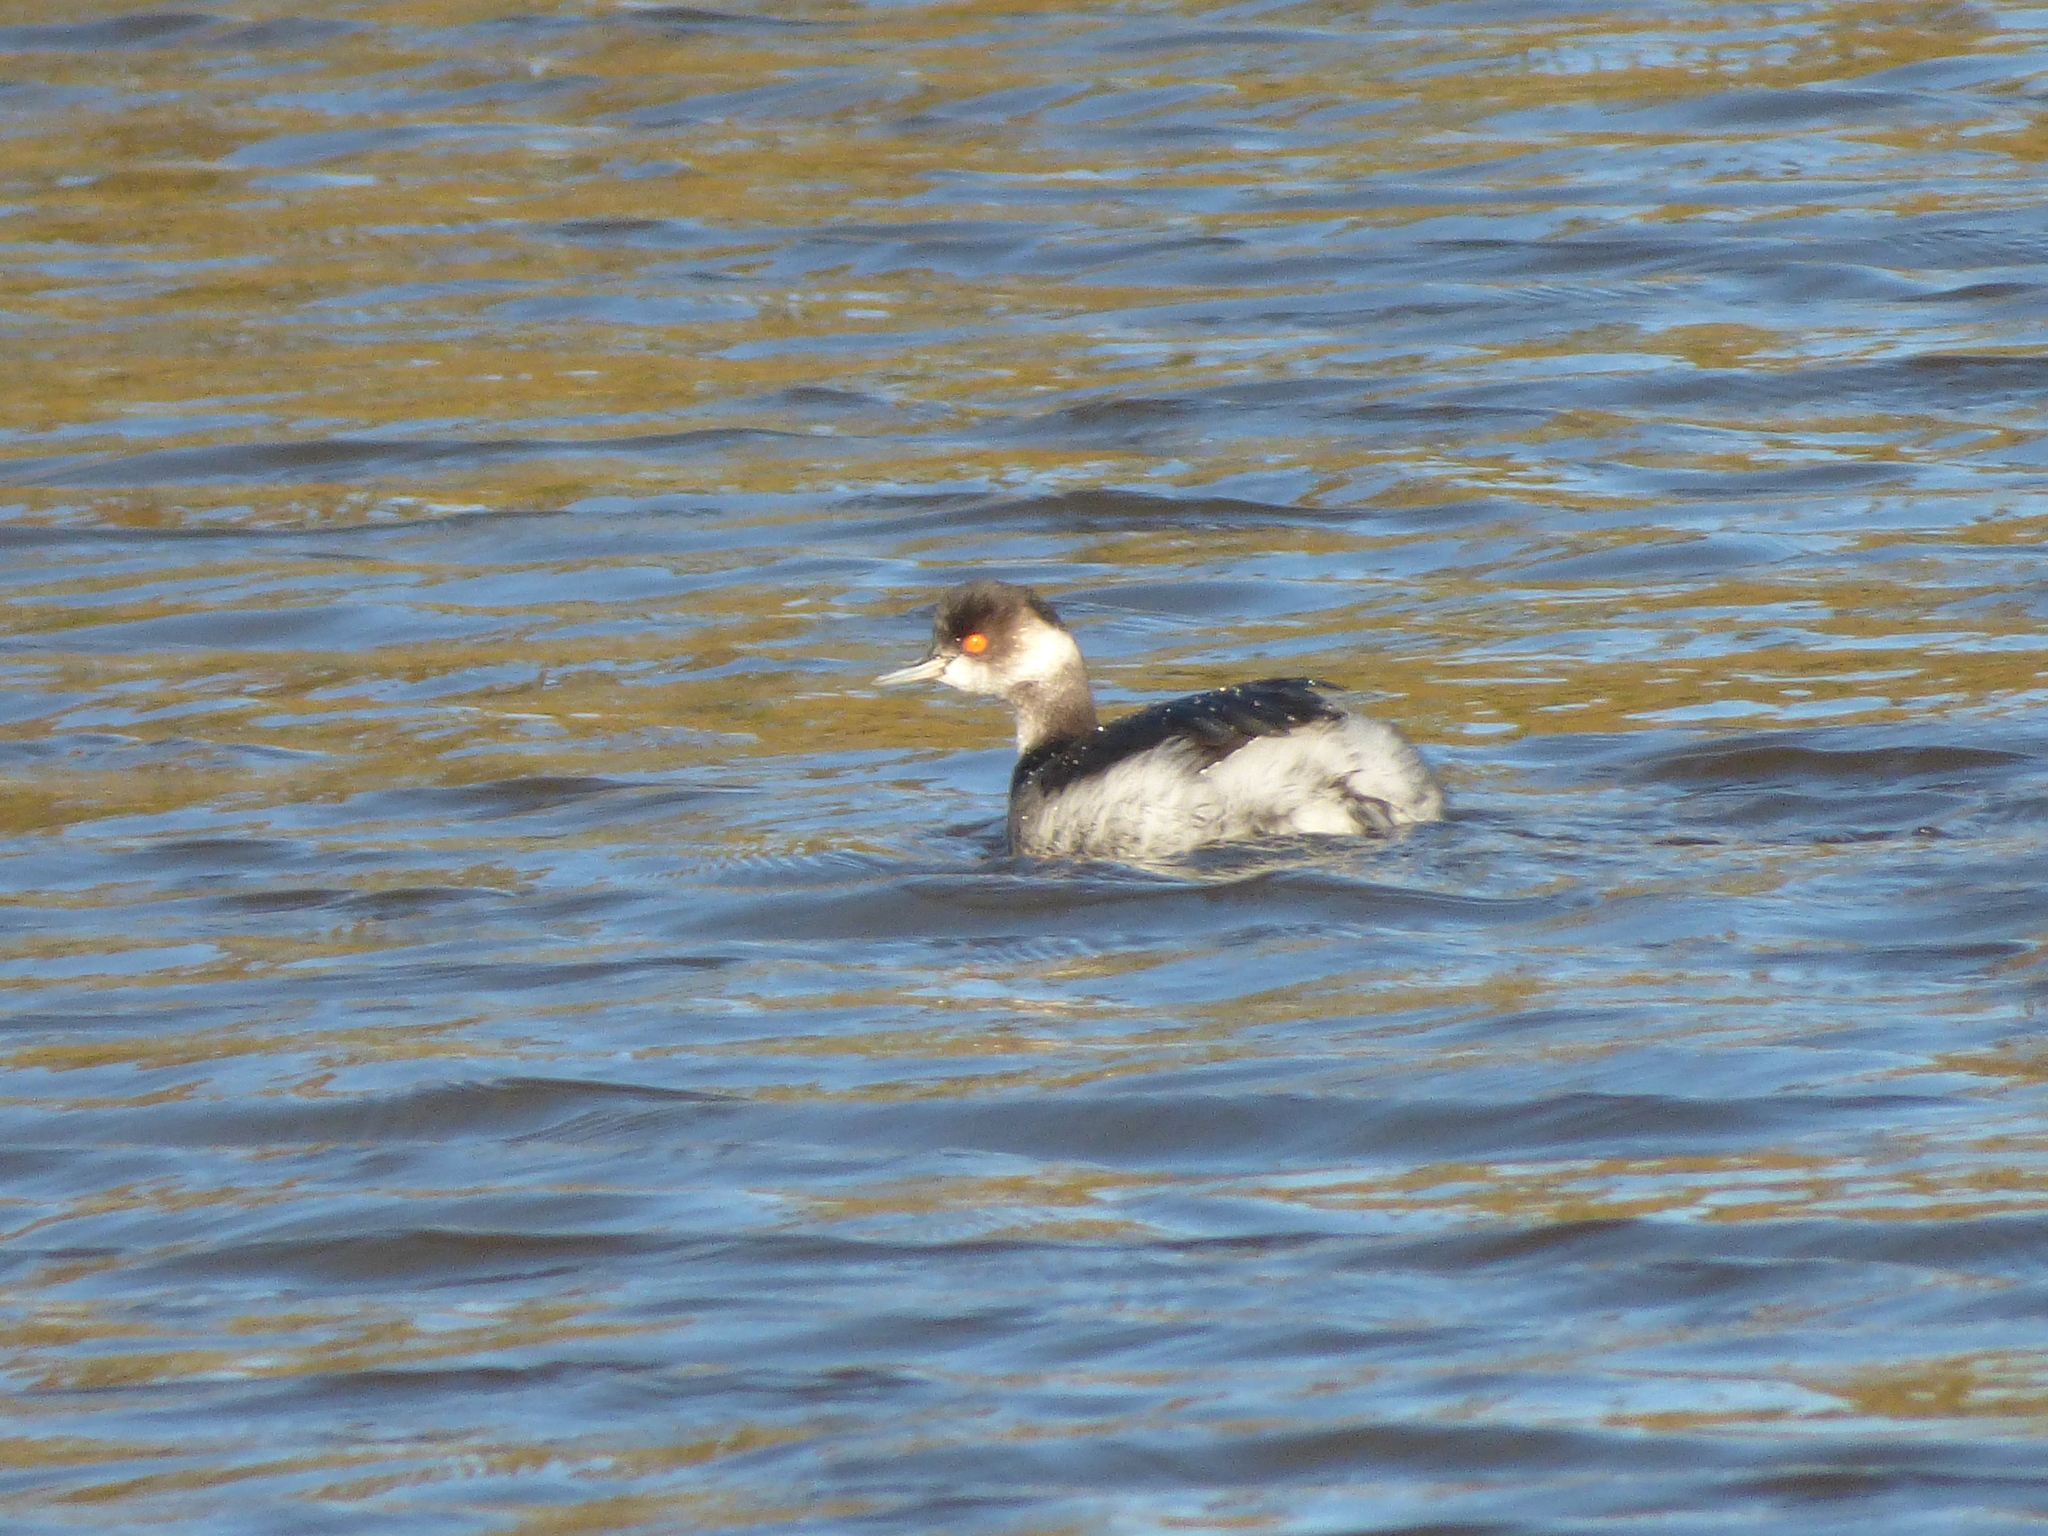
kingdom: Animalia
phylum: Chordata
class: Aves
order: Podicipediformes
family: Podicipedidae
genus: Podiceps
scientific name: Podiceps nigricollis
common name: Black-necked grebe
